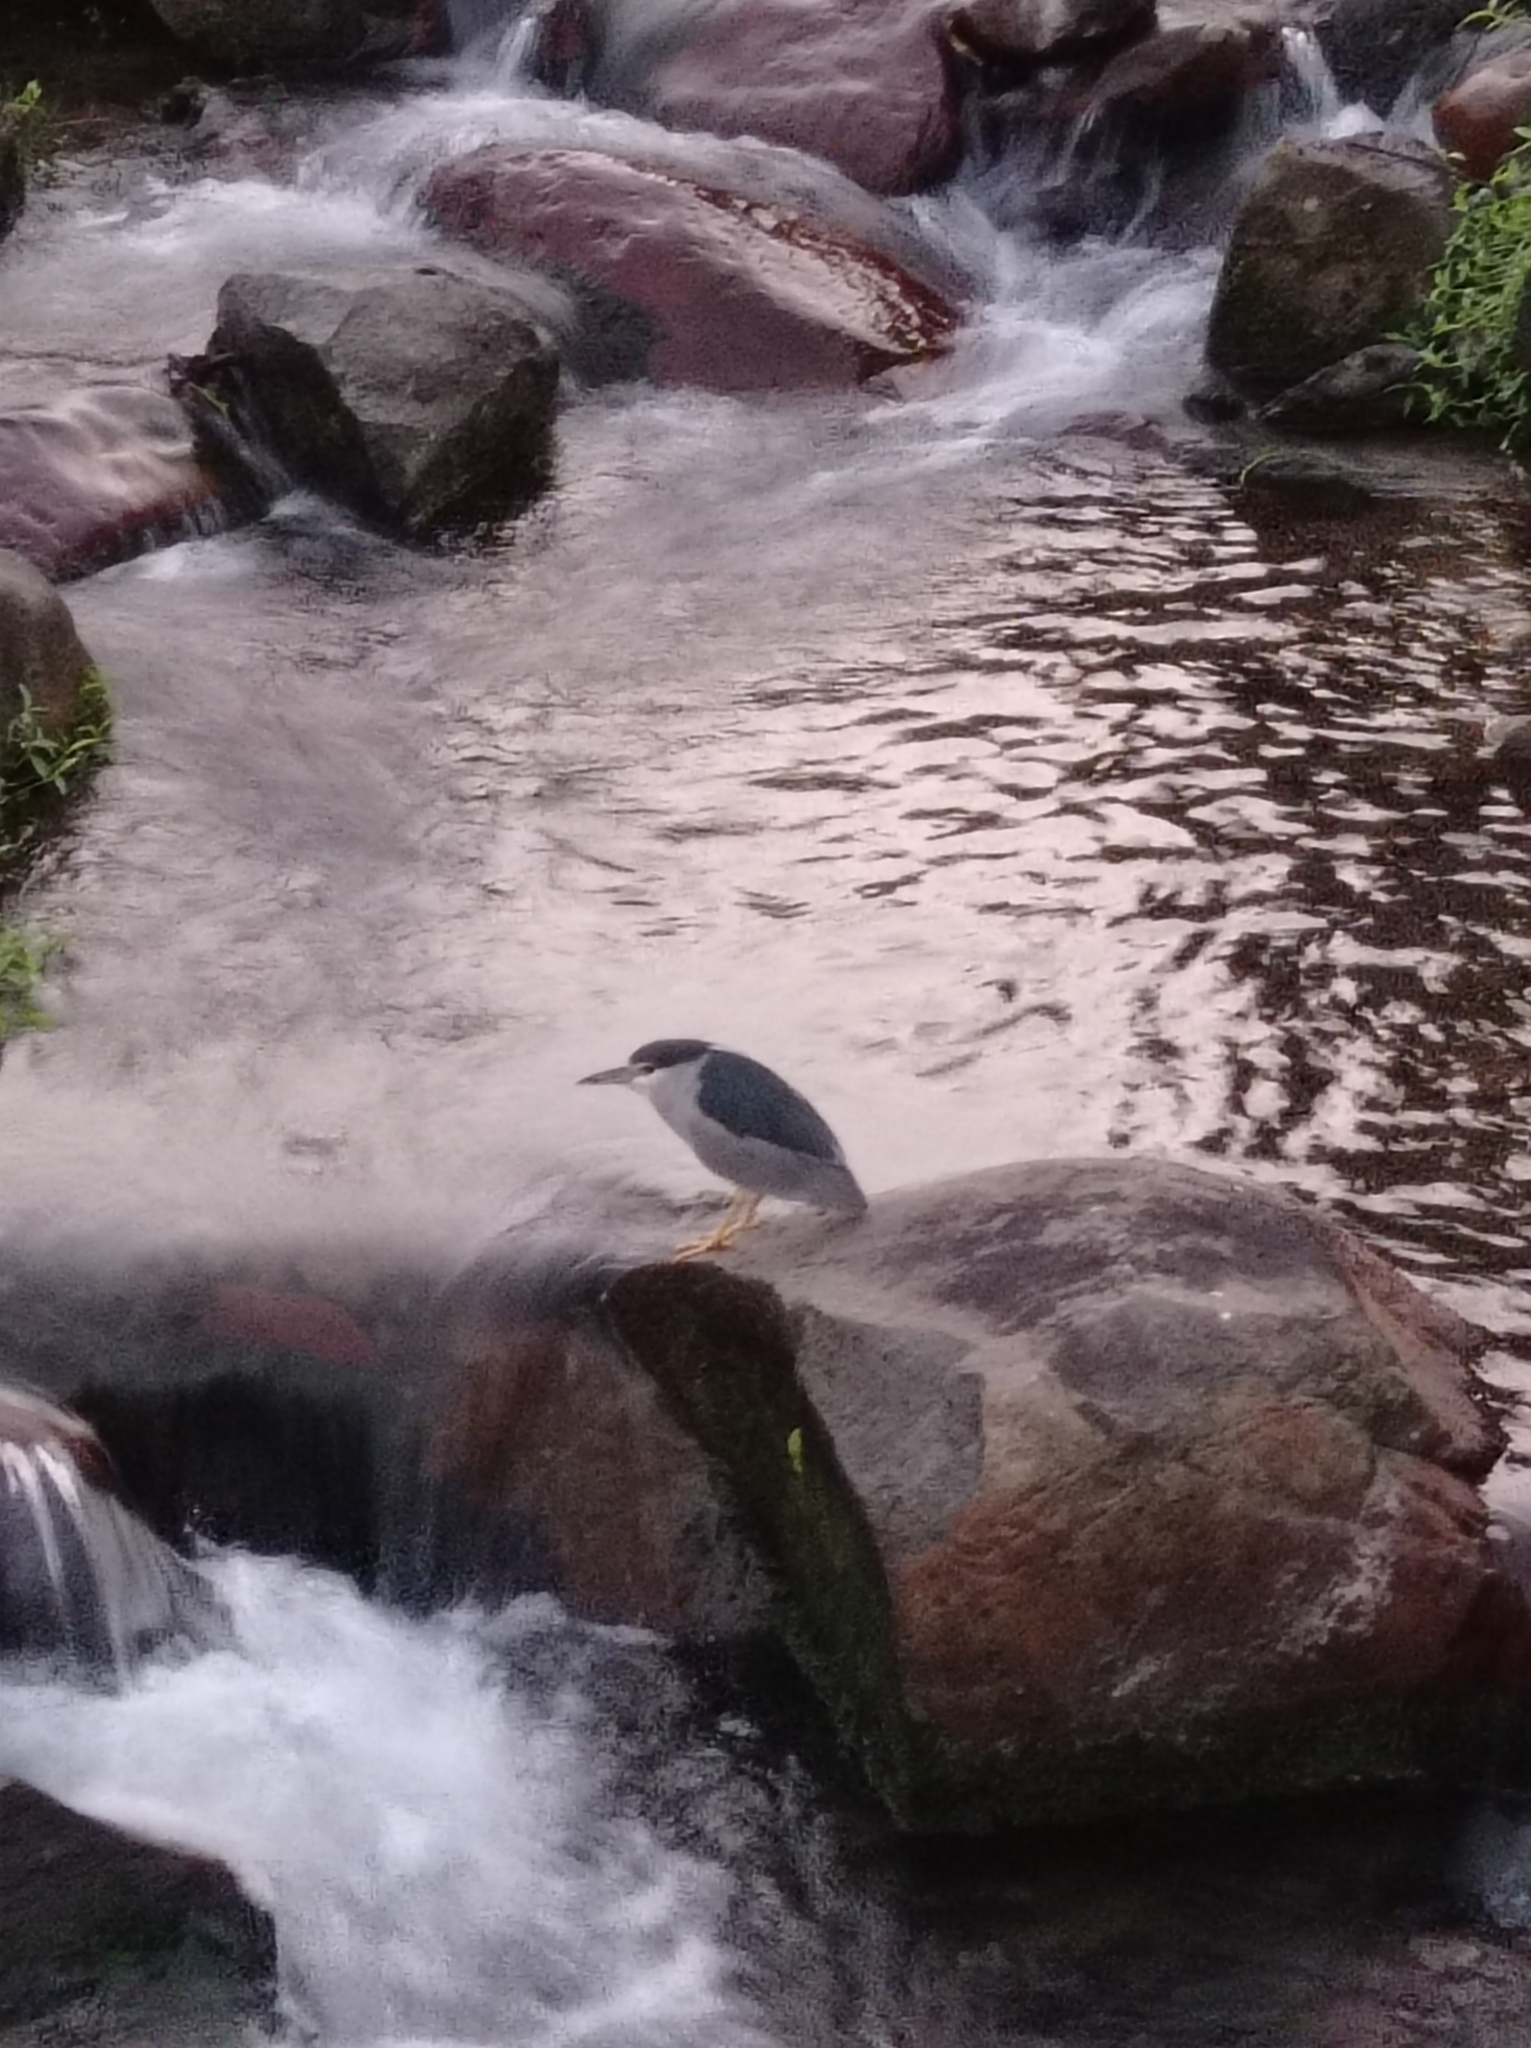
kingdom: Animalia
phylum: Chordata
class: Aves
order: Pelecaniformes
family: Ardeidae
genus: Nycticorax
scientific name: Nycticorax nycticorax
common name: Black-crowned night heron
